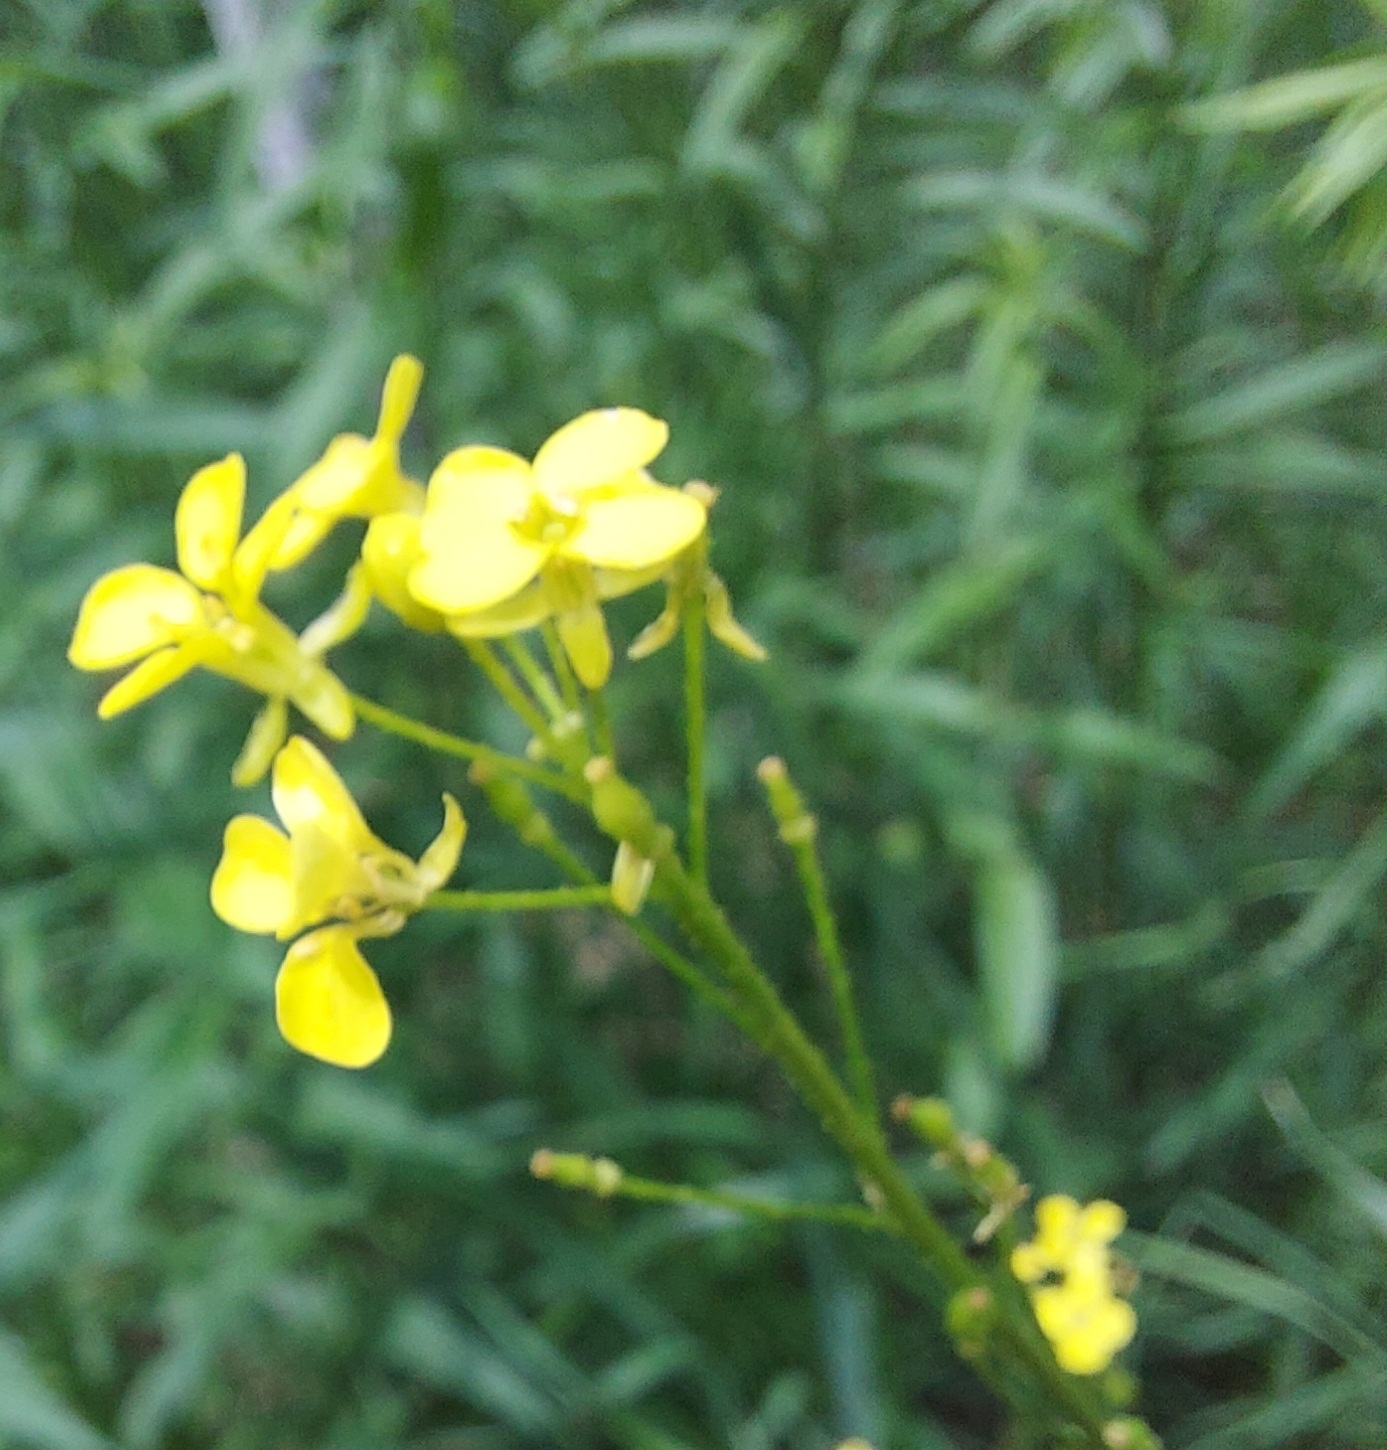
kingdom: Plantae
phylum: Tracheophyta
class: Magnoliopsida
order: Brassicales
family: Brassicaceae
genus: Bunias
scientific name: Bunias orientalis
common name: Warty-cabbage
